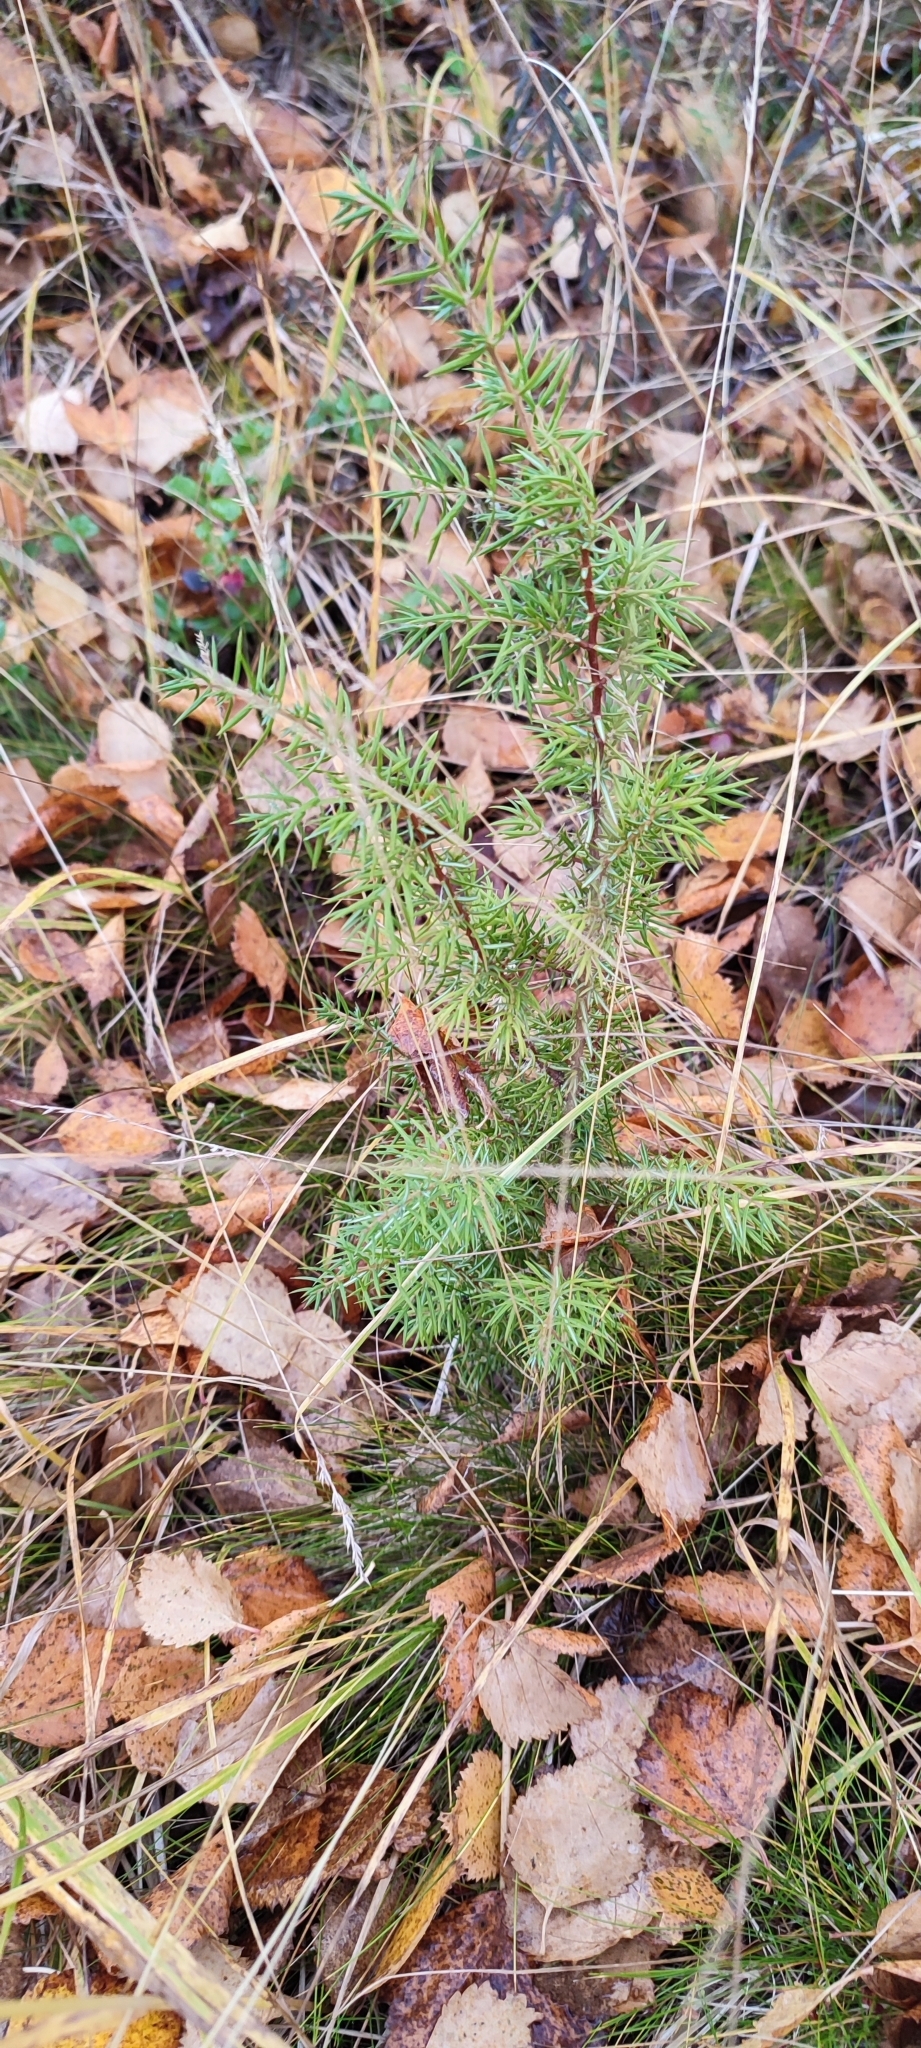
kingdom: Plantae
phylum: Tracheophyta
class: Pinopsida
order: Pinales
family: Cupressaceae
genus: Juniperus
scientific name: Juniperus communis
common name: Common juniper
